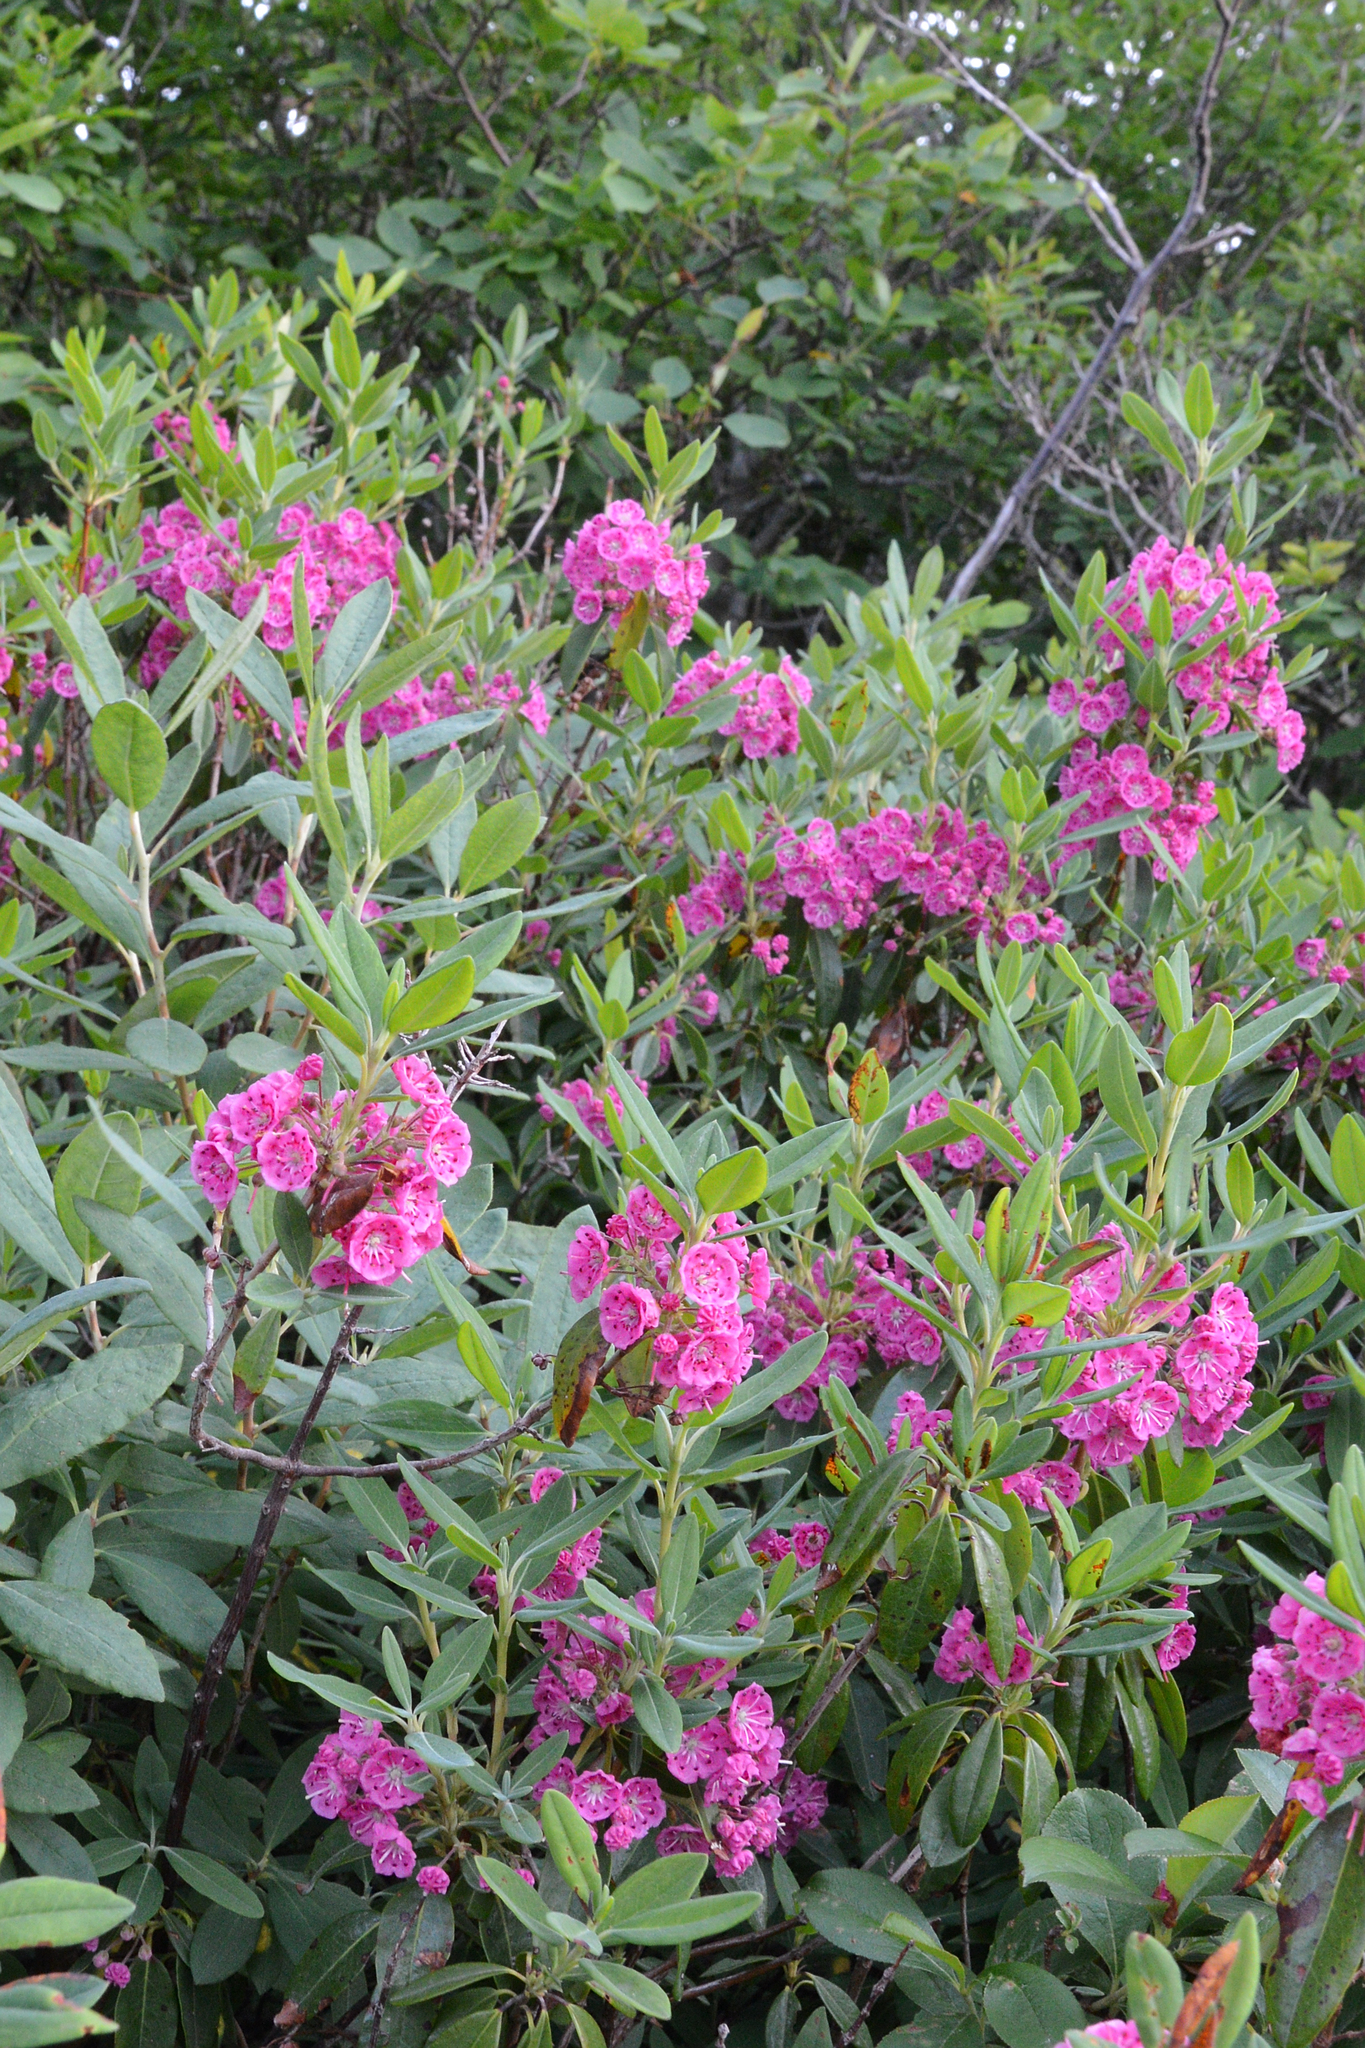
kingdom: Plantae
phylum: Tracheophyta
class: Magnoliopsida
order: Ericales
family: Ericaceae
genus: Kalmia
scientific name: Kalmia angustifolia
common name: Sheep-laurel
